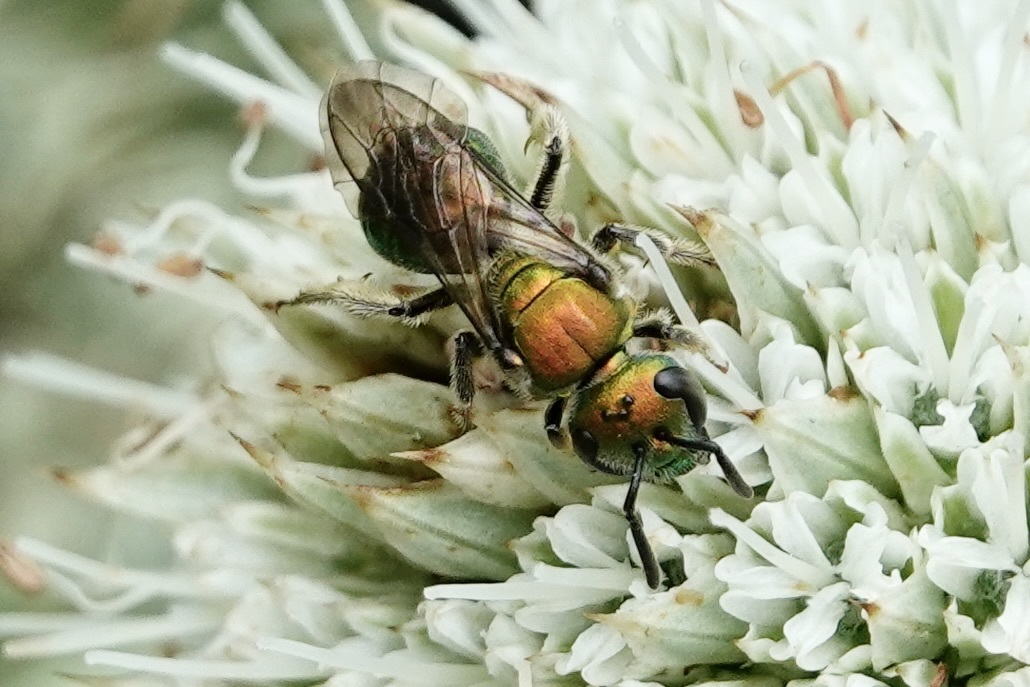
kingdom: Animalia
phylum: Arthropoda
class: Insecta
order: Hymenoptera
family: Halictidae
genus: Augochlora
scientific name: Augochlora pura
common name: Pure green sweat bee
